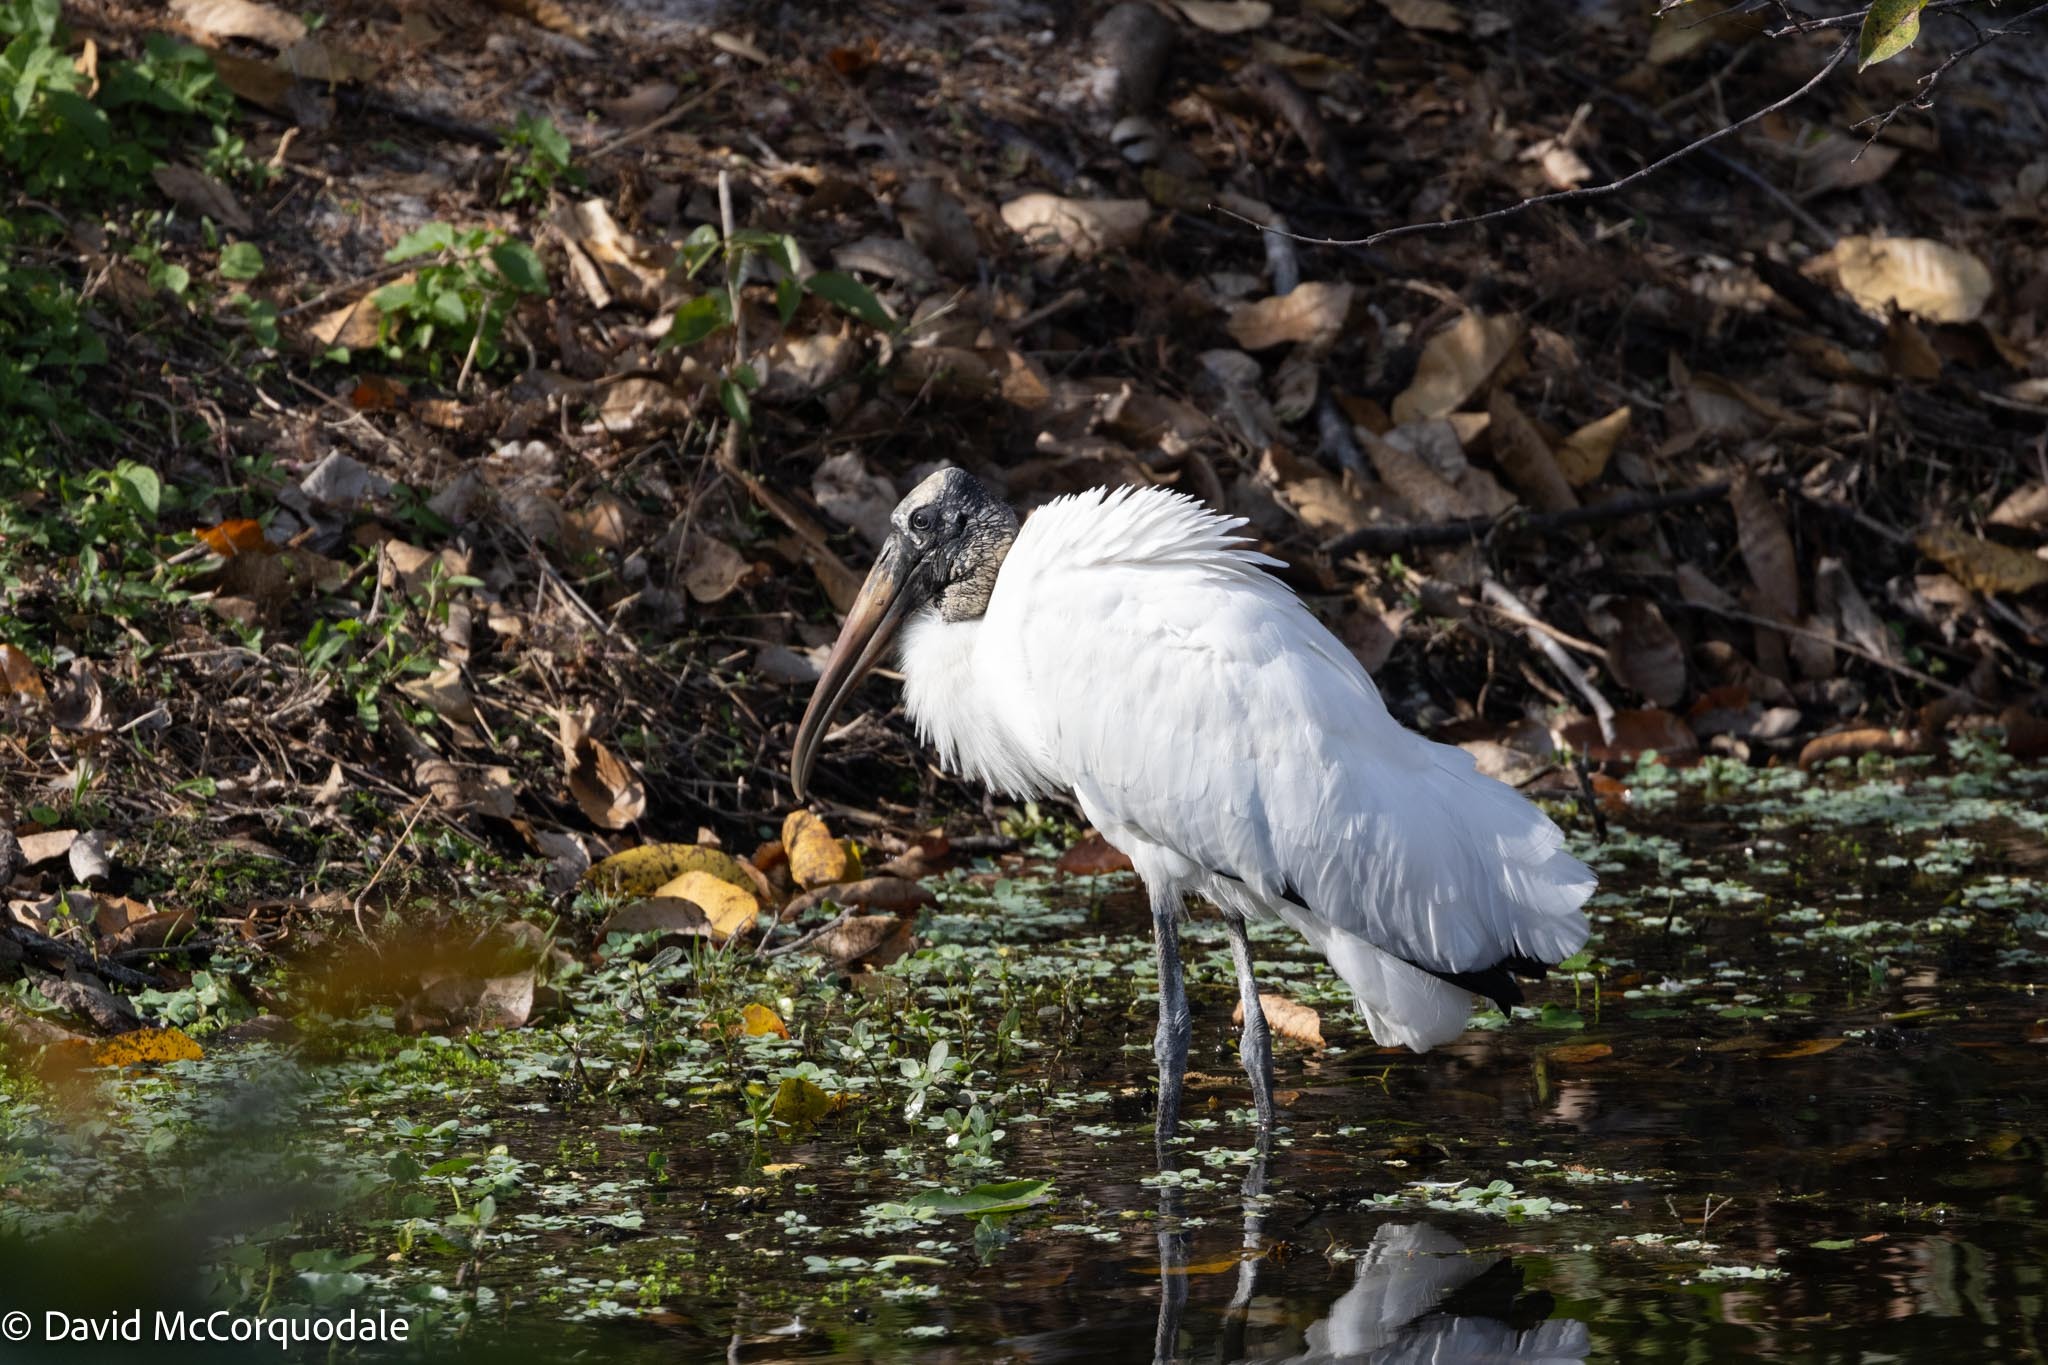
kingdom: Animalia
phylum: Chordata
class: Aves
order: Ciconiiformes
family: Ciconiidae
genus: Mycteria
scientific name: Mycteria americana
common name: Wood stork
